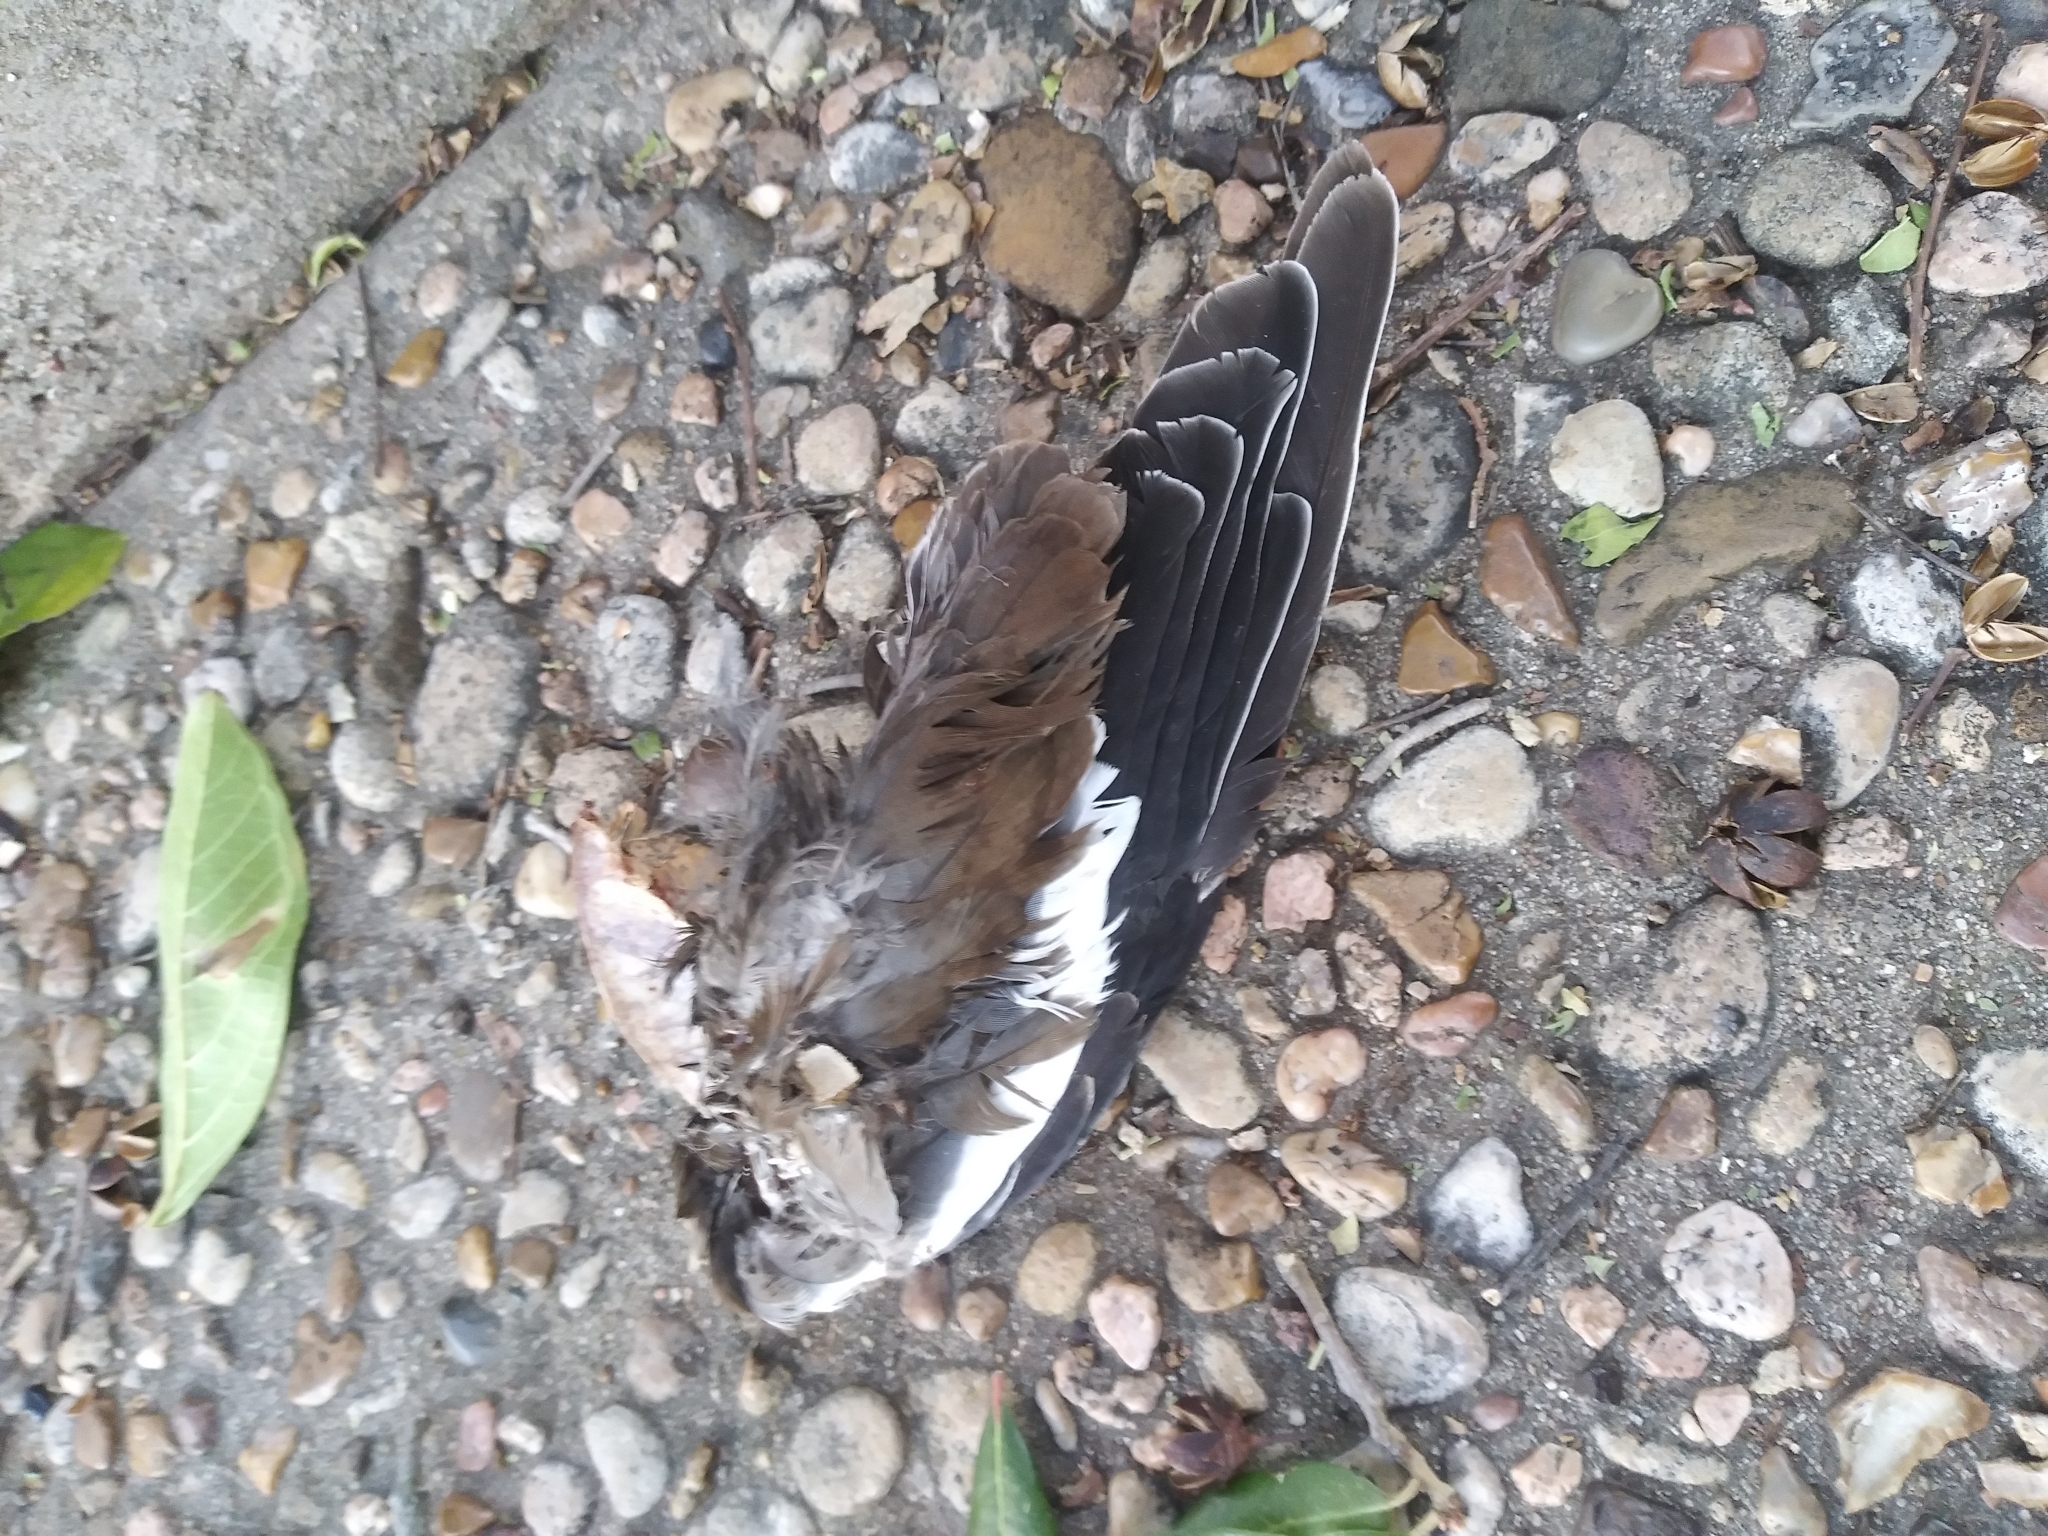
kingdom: Animalia
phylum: Chordata
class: Aves
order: Columbiformes
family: Columbidae
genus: Zenaida
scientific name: Zenaida asiatica
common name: White-winged dove
